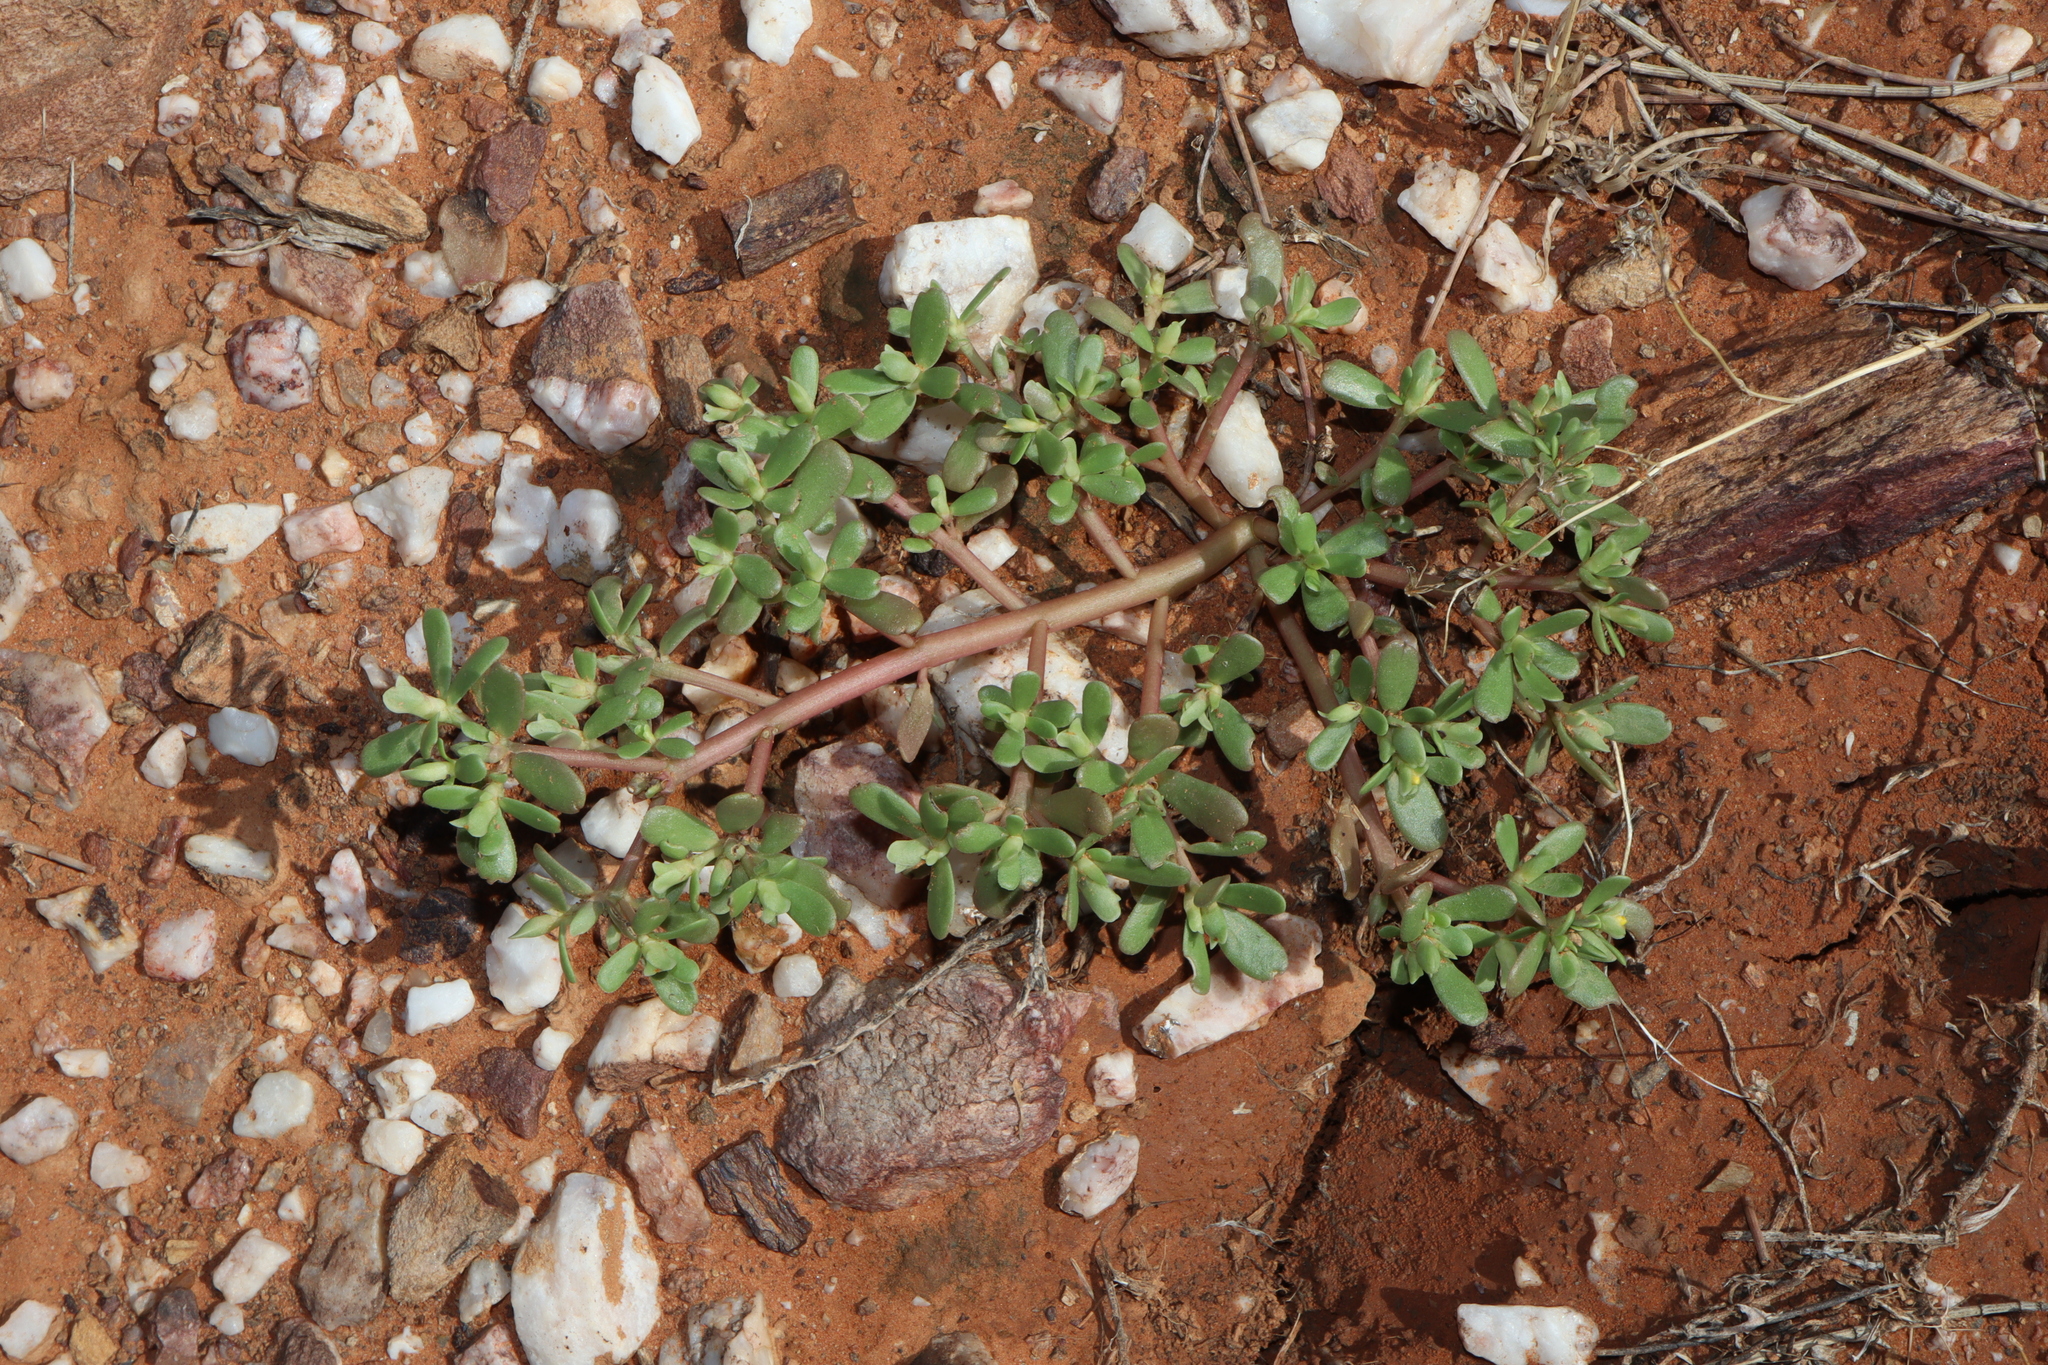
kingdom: Plantae
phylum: Tracheophyta
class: Magnoliopsida
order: Caryophyllales
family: Portulacaceae
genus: Portulaca
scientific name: Portulaca oleracea
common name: Common purslane
